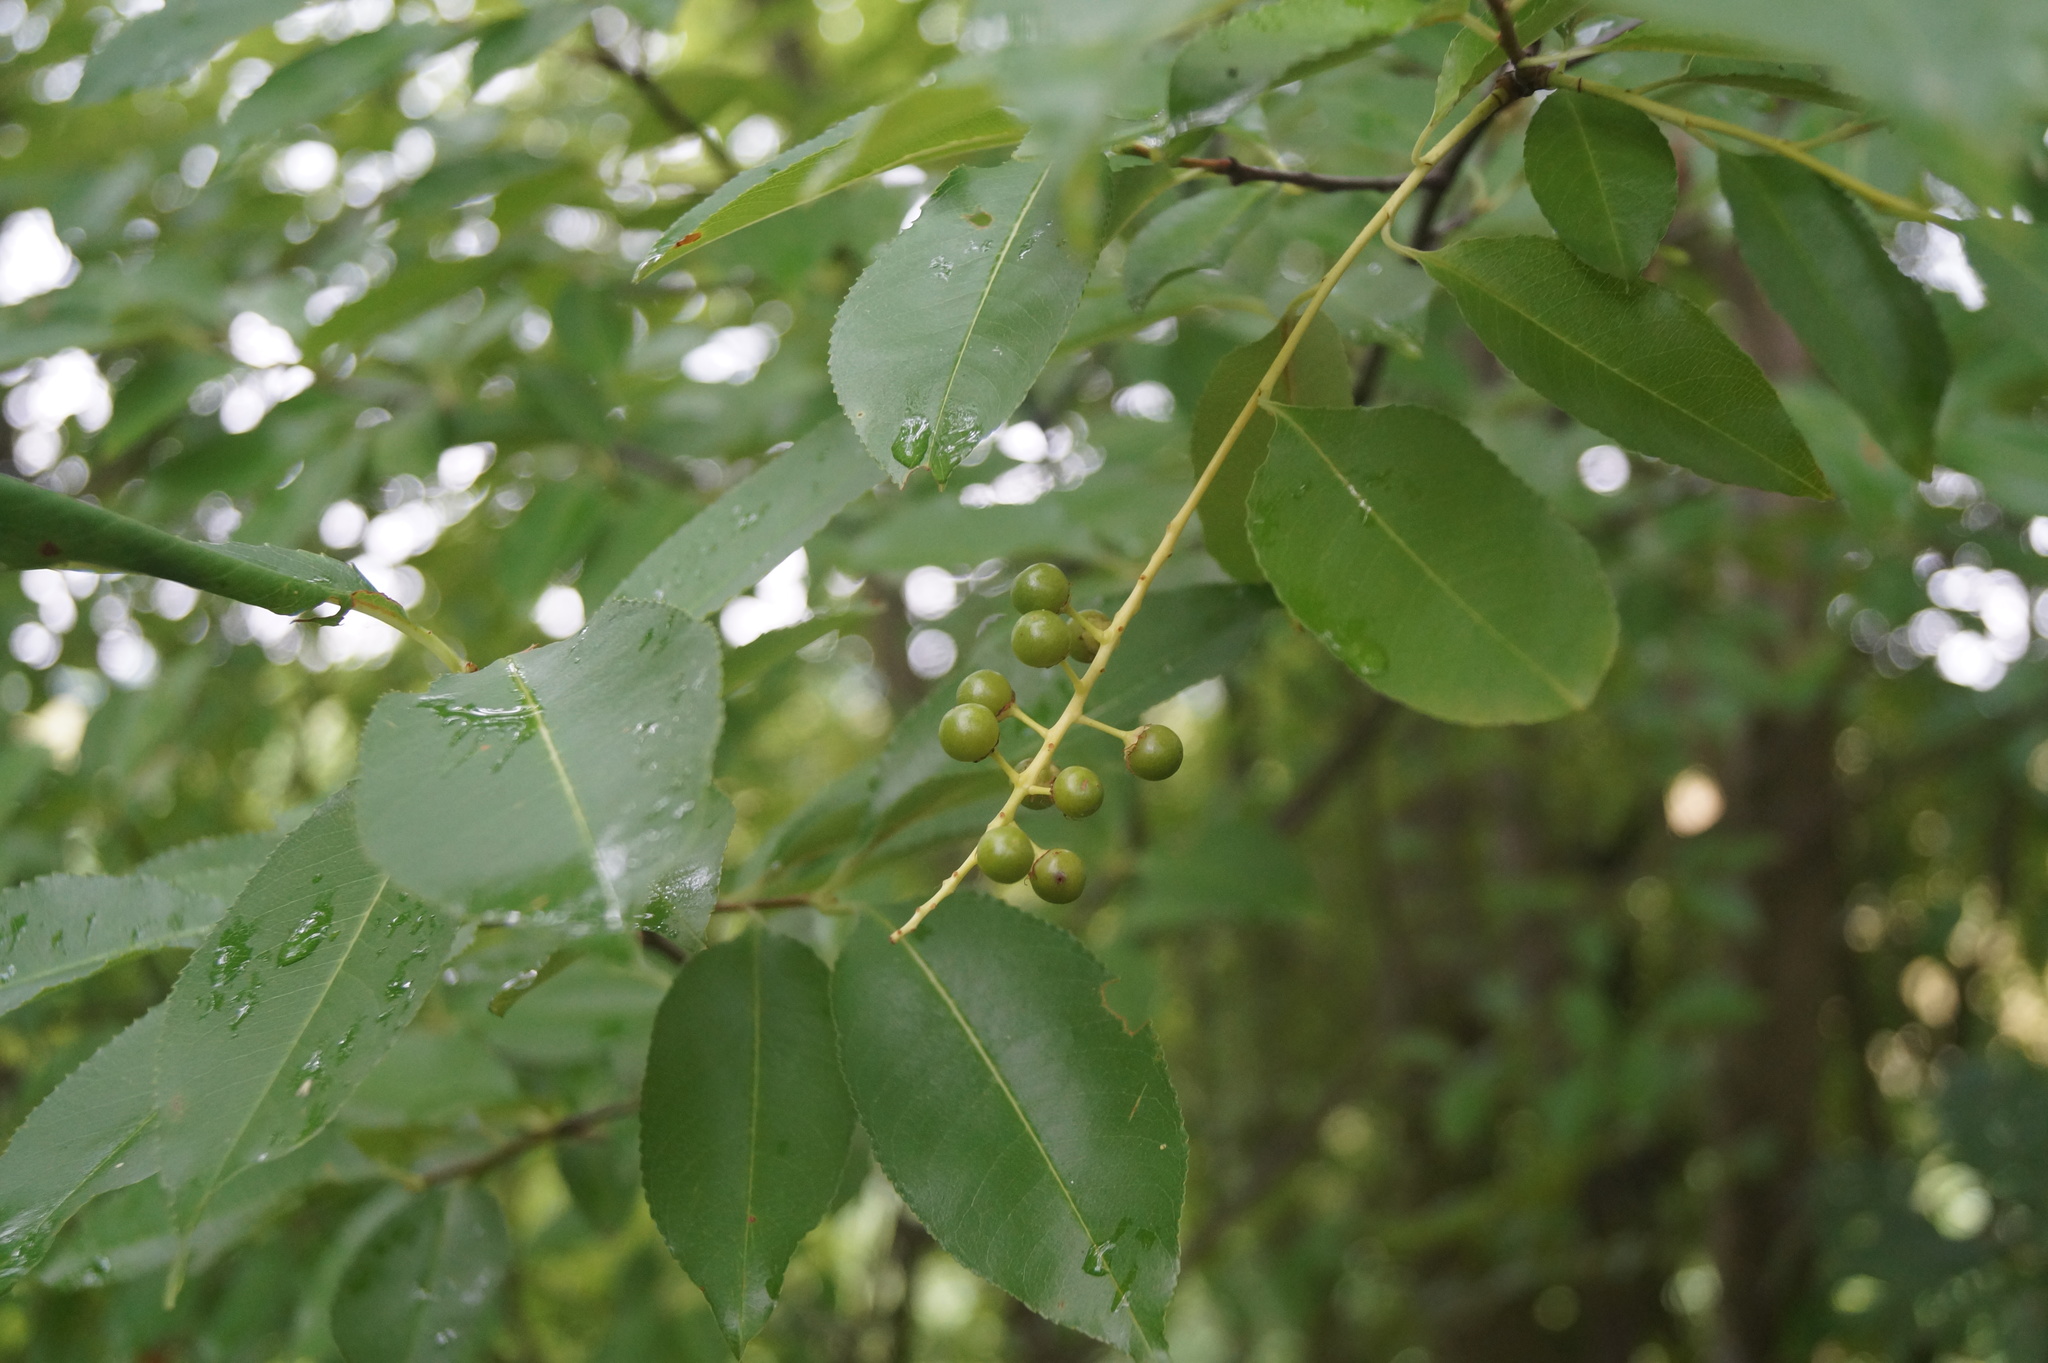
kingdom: Plantae
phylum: Tracheophyta
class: Magnoliopsida
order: Rosales
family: Rosaceae
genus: Prunus
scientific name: Prunus serotina
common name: Black cherry
